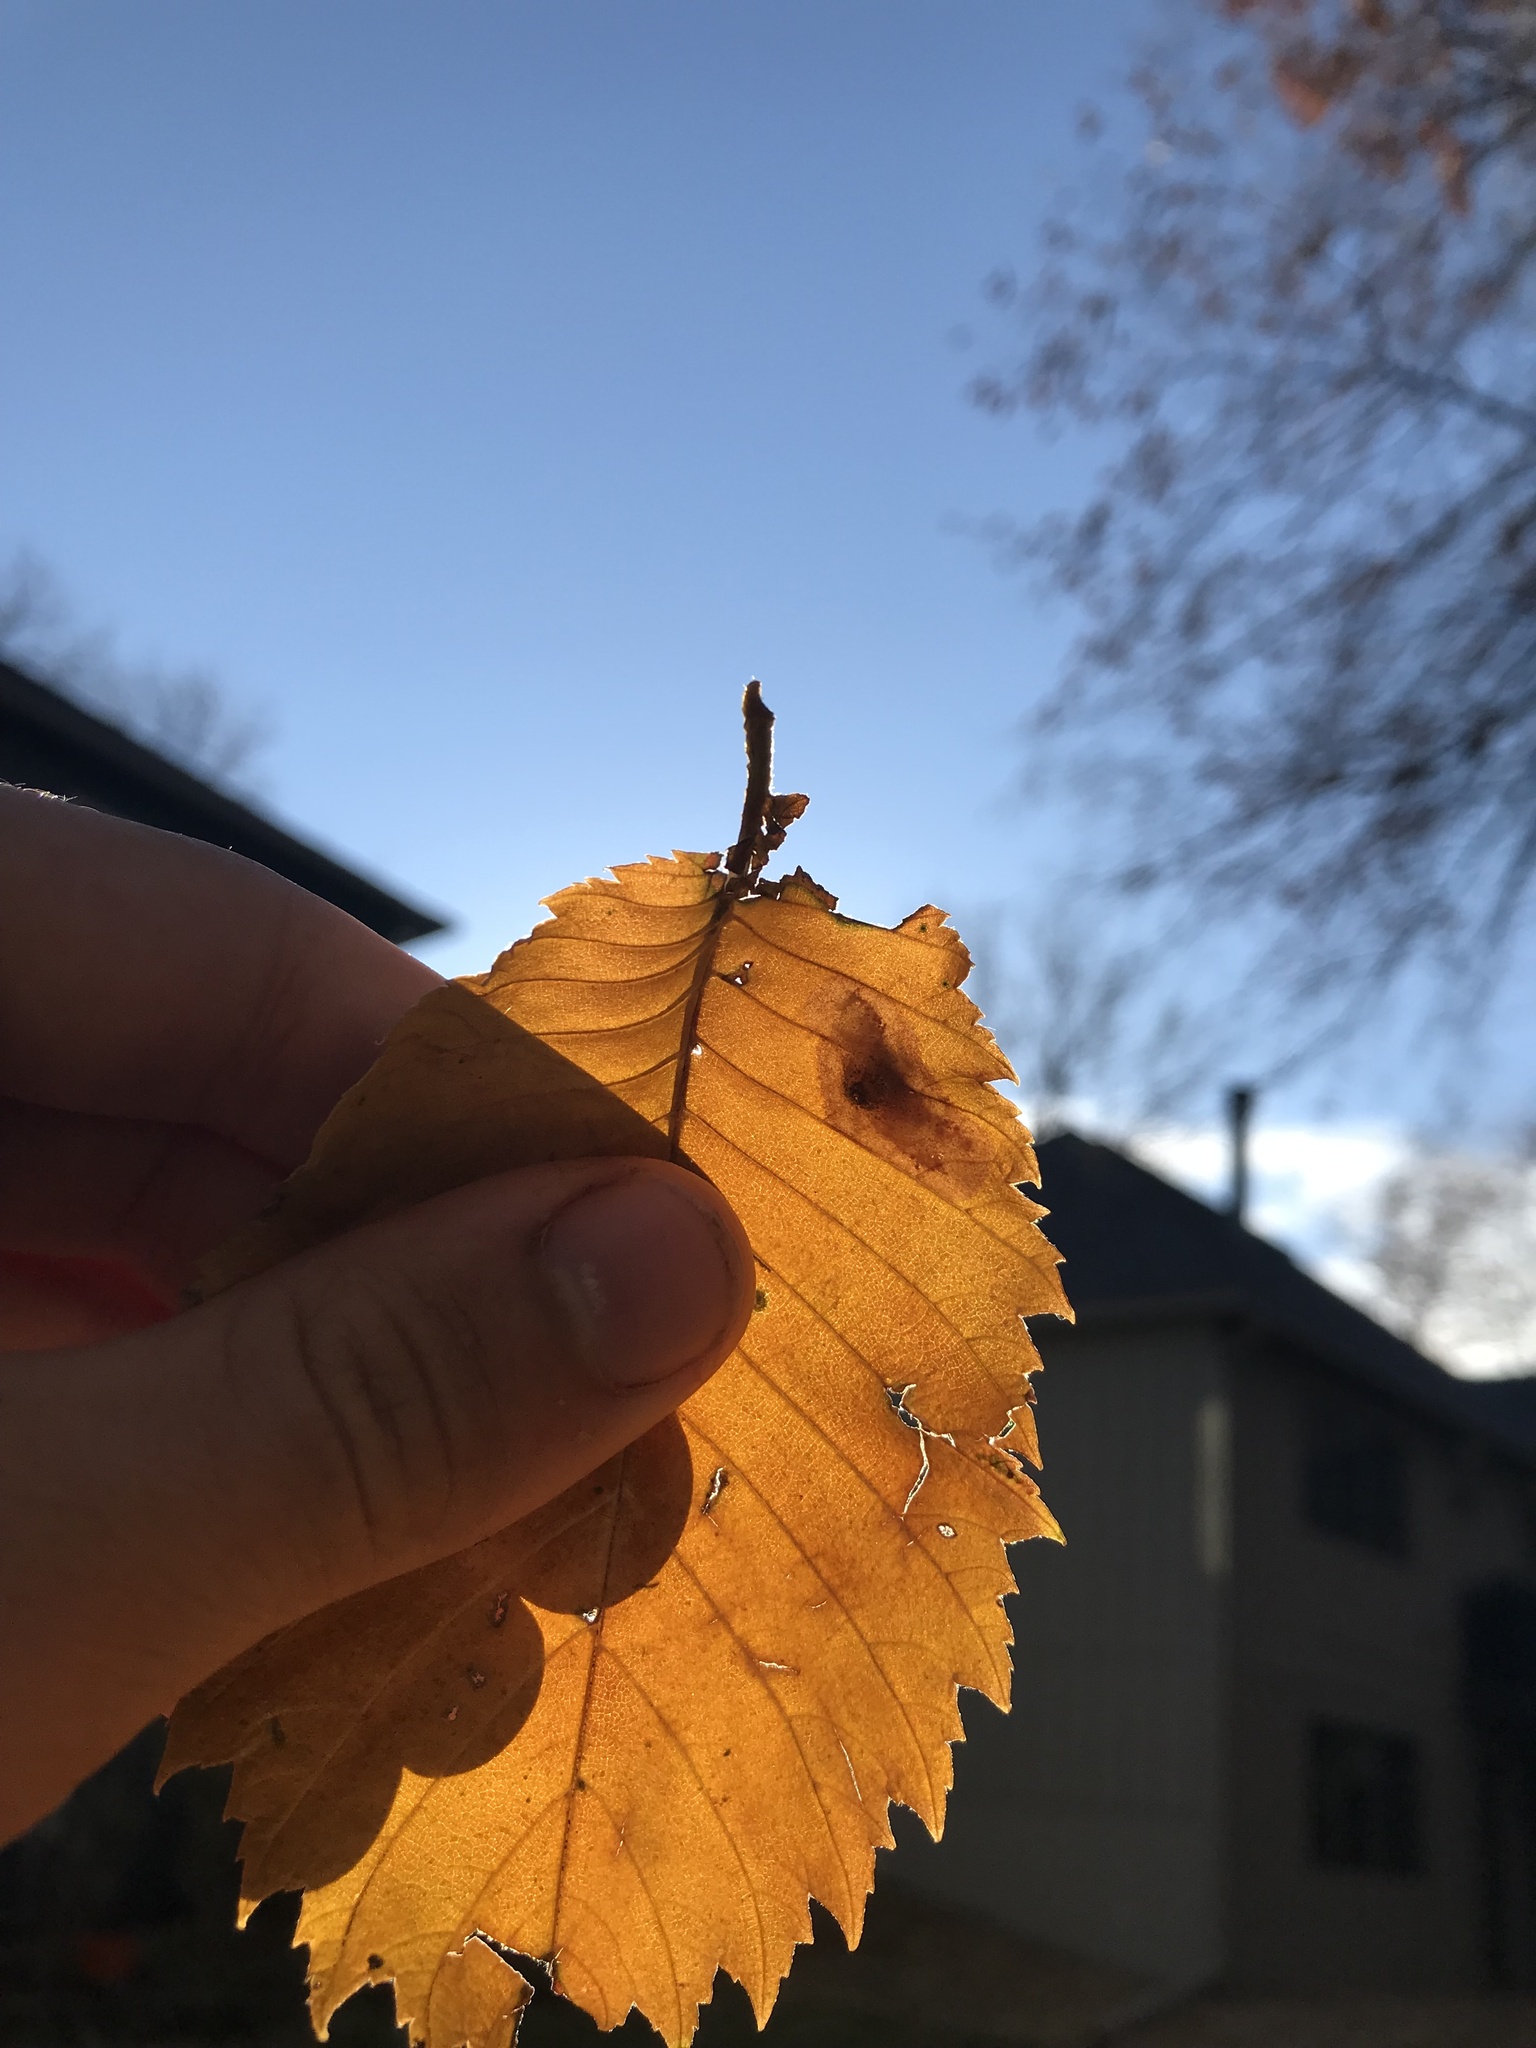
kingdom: Animalia
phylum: Arthropoda
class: Insecta
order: Lepidoptera
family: Gracillariidae
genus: Cameraria
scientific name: Cameraria ulmella
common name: Elm leafminer
